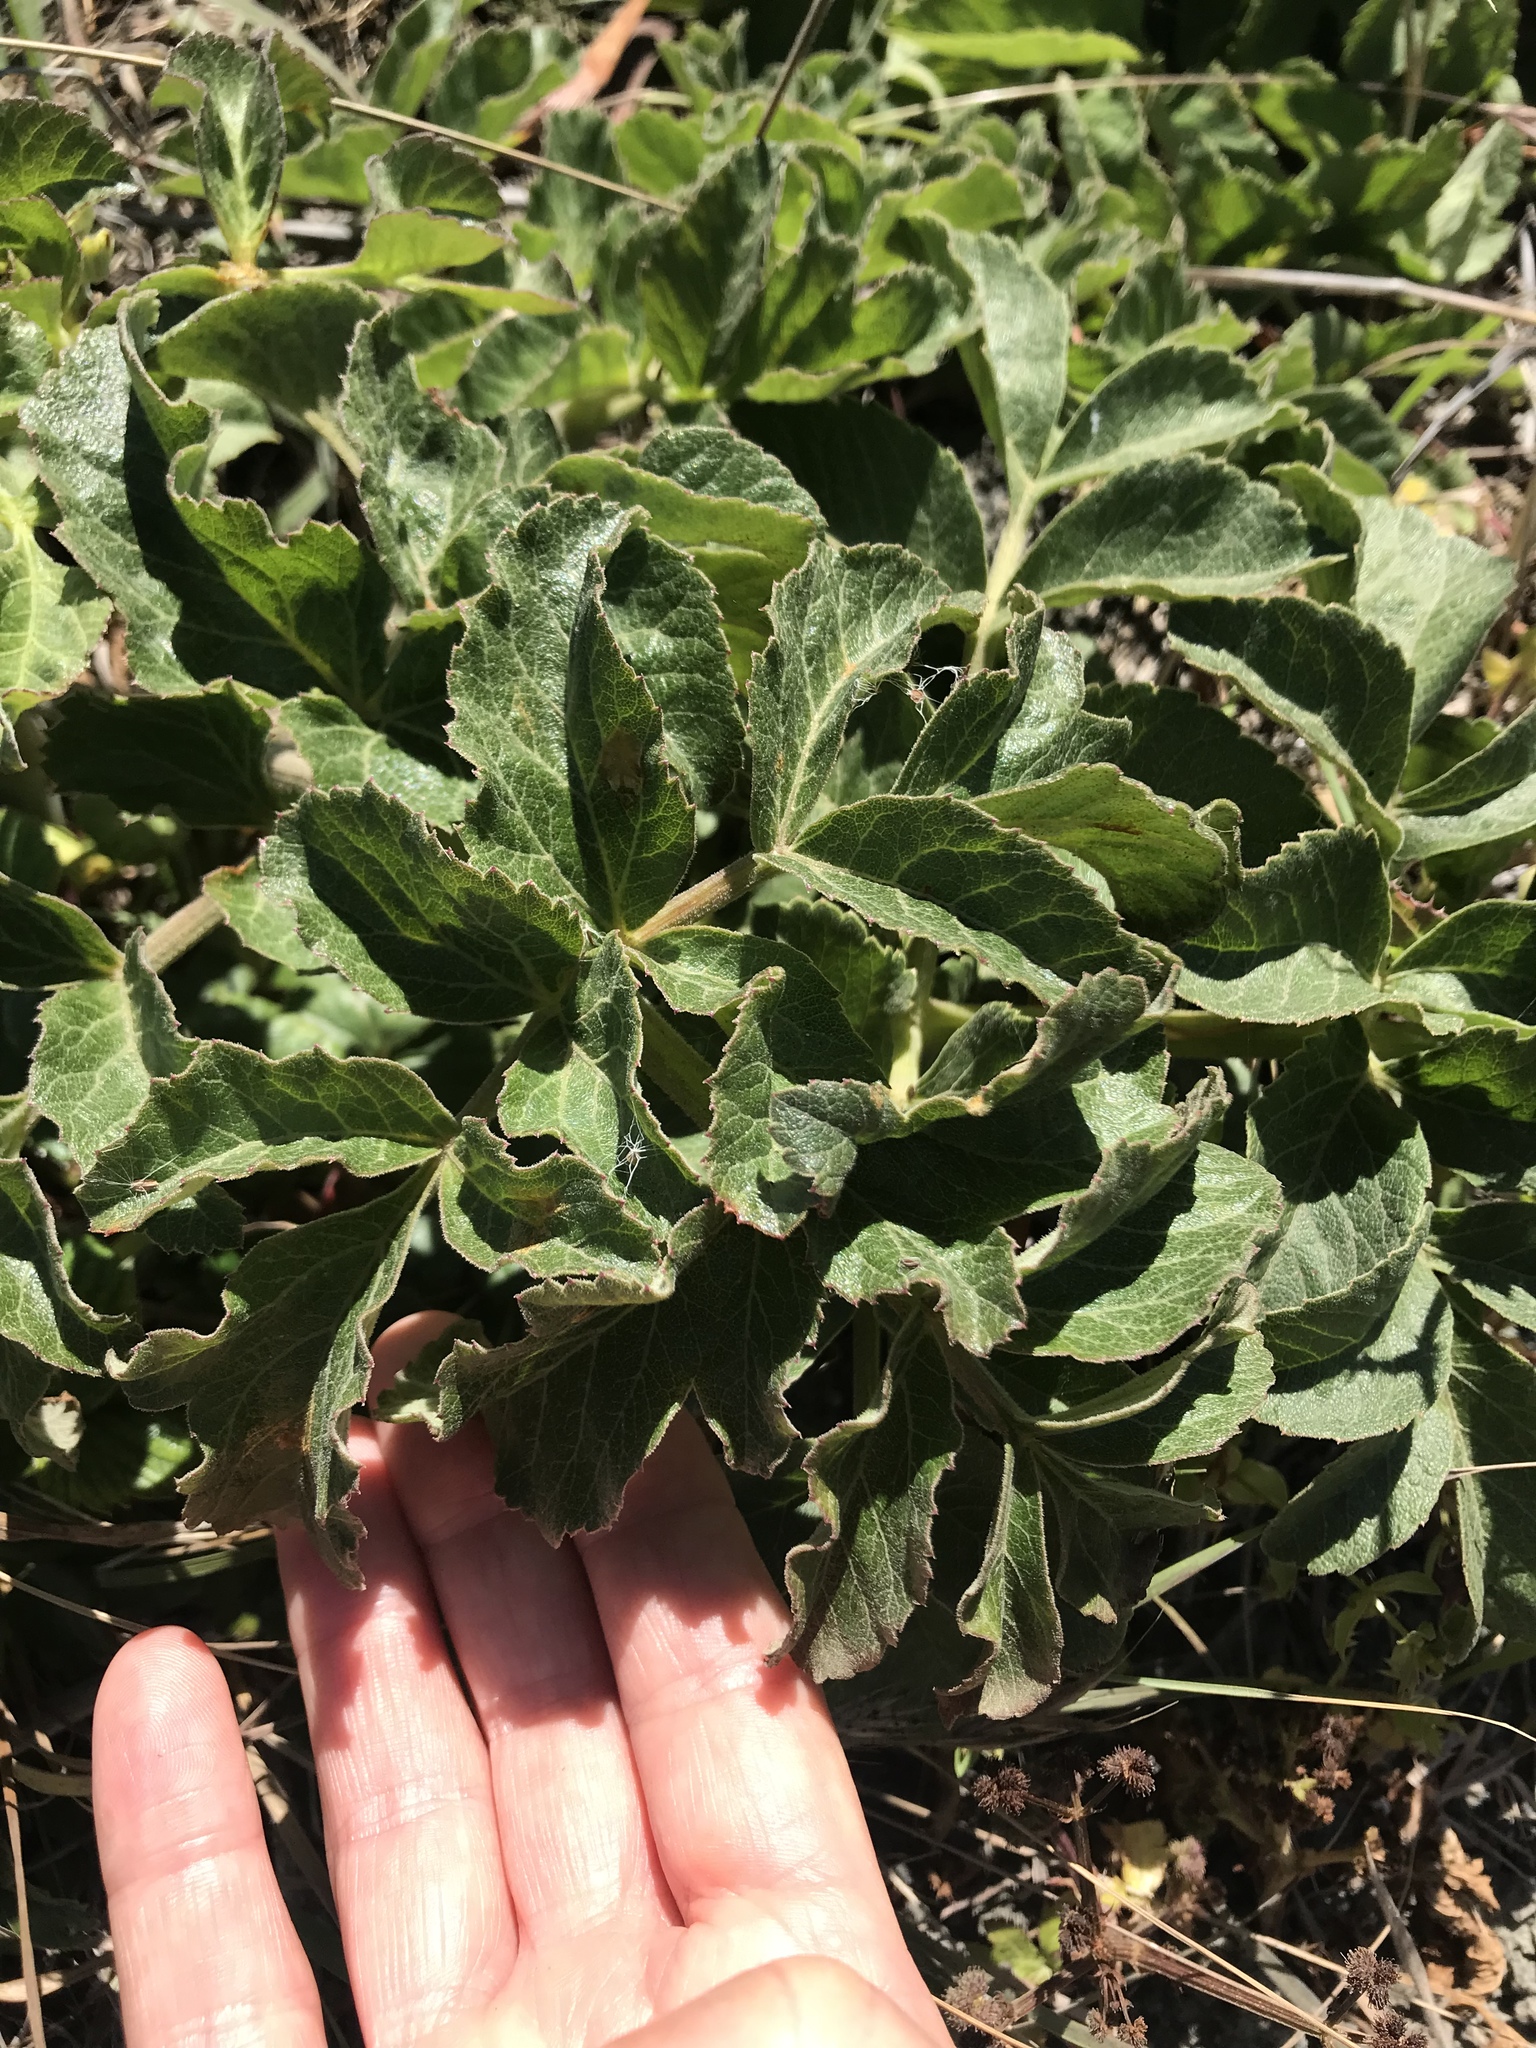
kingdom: Plantae
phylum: Tracheophyta
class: Magnoliopsida
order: Apiales
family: Apiaceae
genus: Angelica
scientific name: Angelica hendersonii
